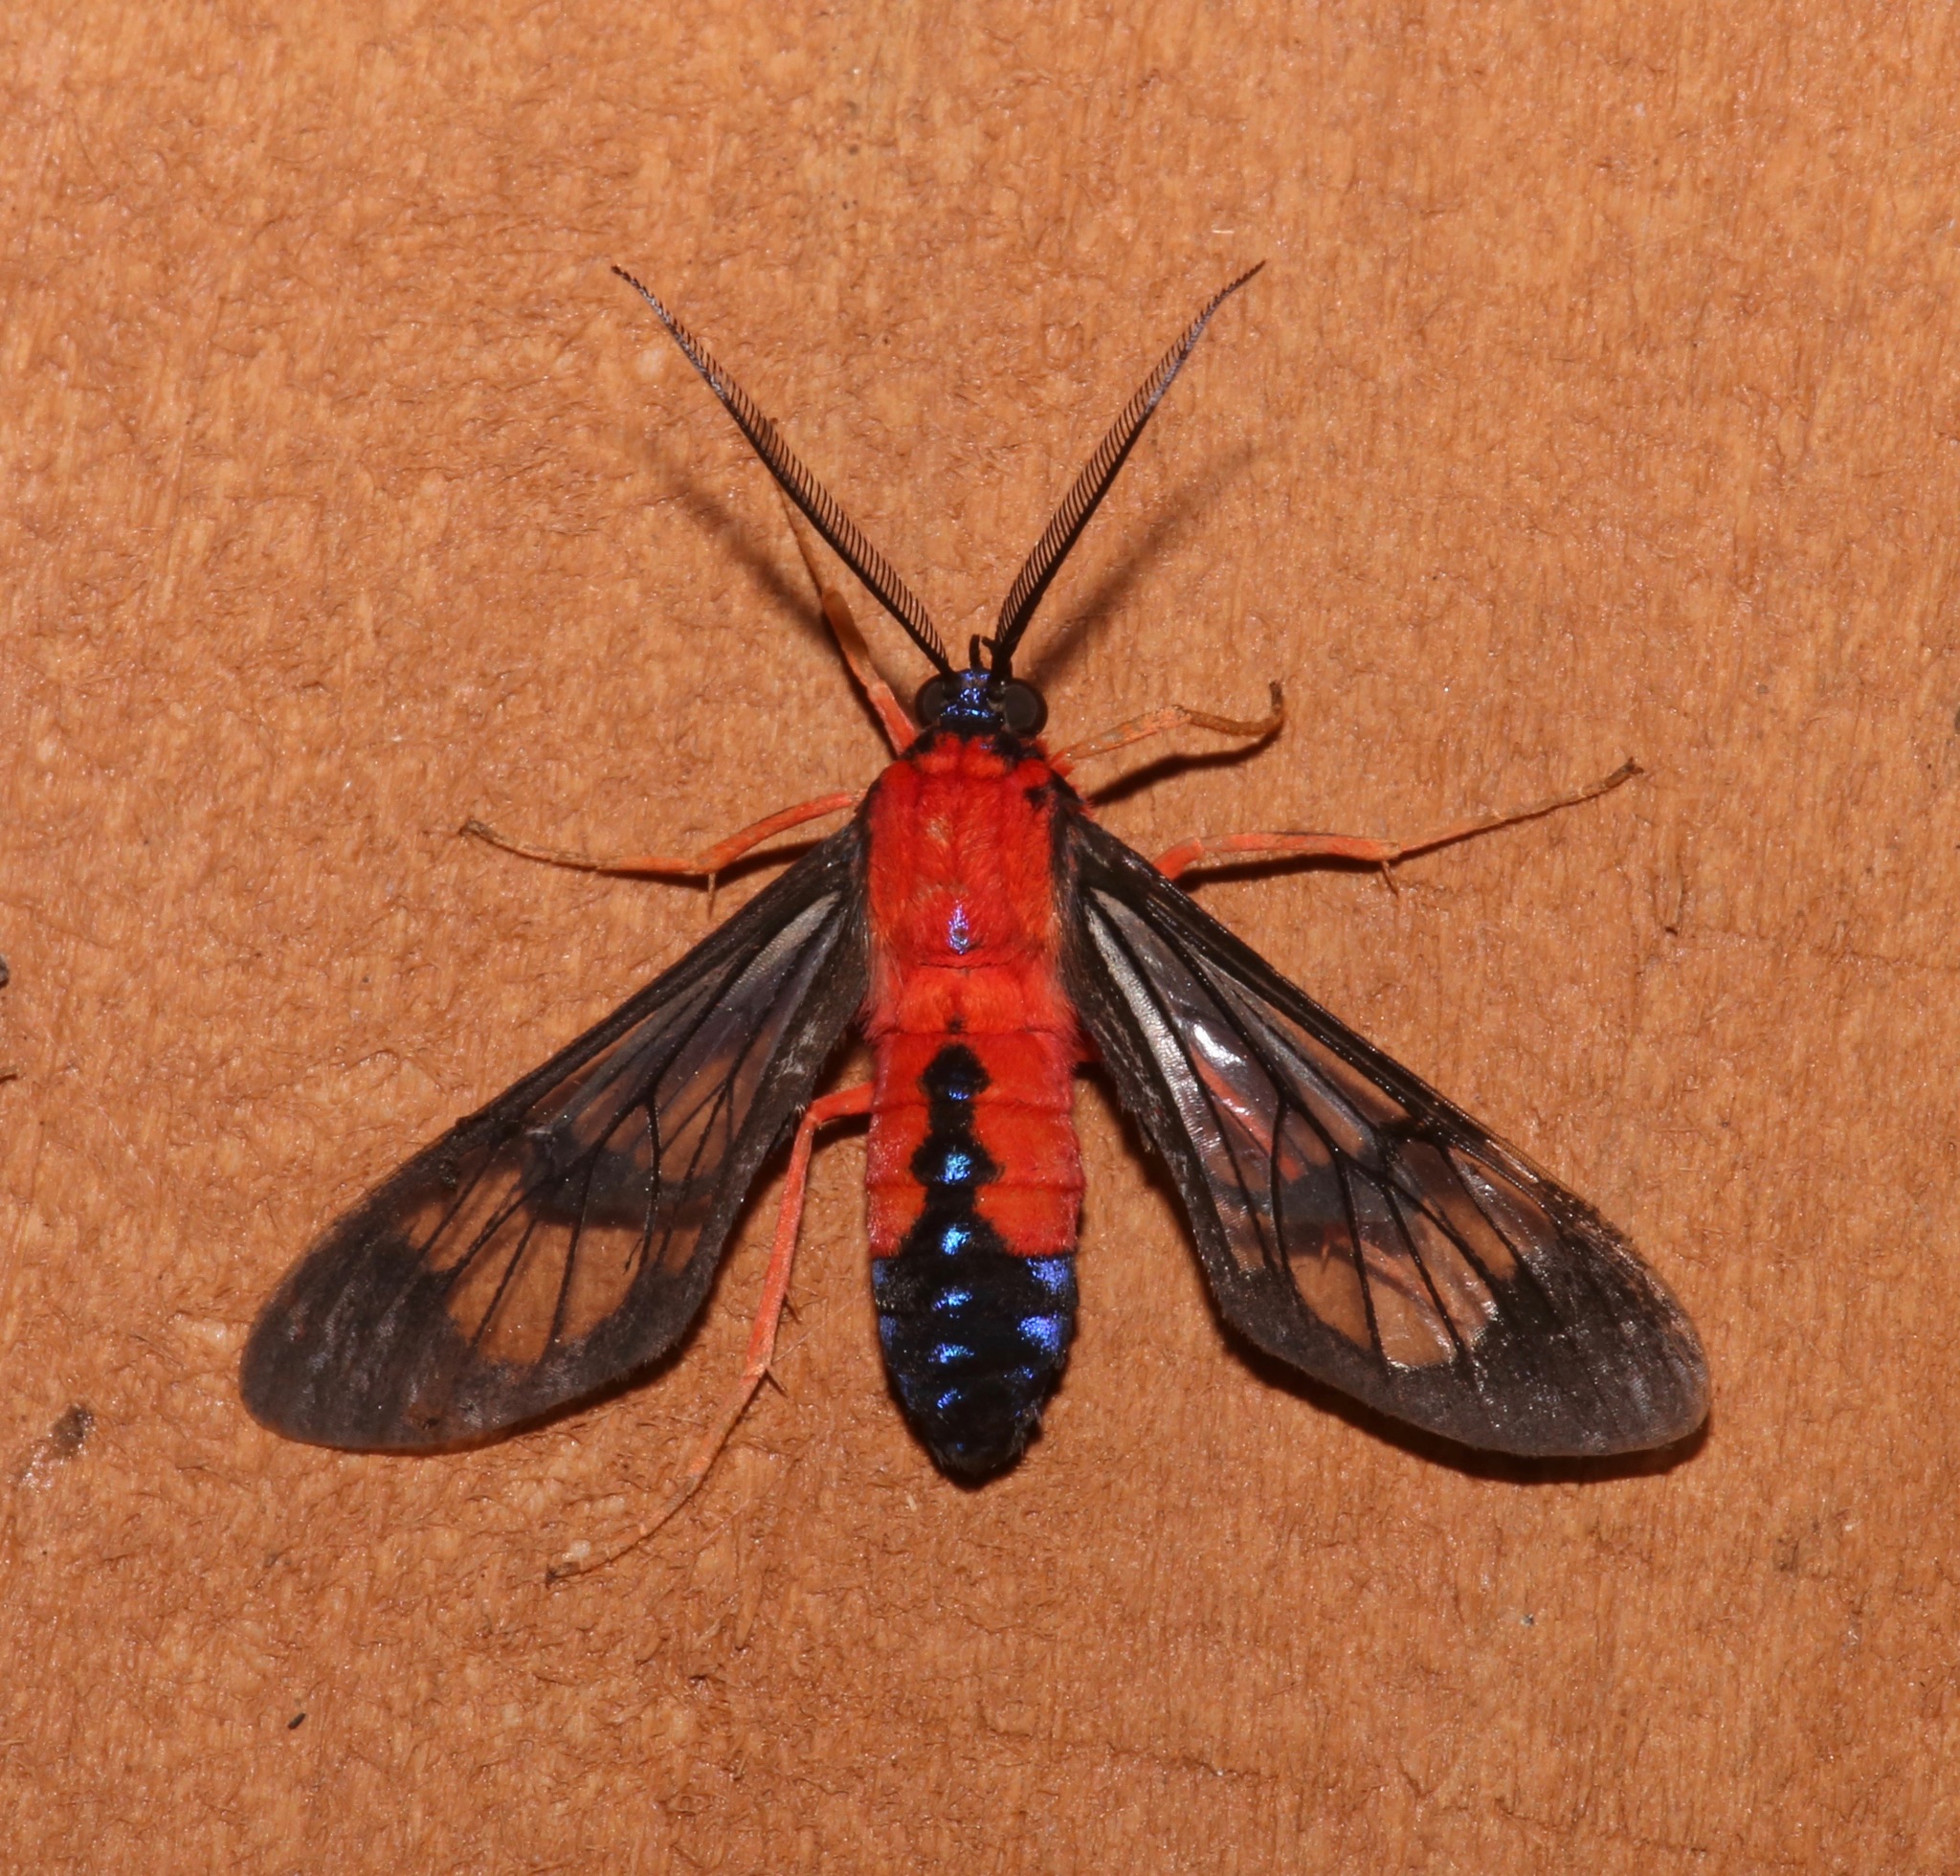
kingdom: Animalia
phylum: Arthropoda
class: Insecta
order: Lepidoptera
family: Erebidae
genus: Cosmosoma
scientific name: Cosmosoma myrodora
